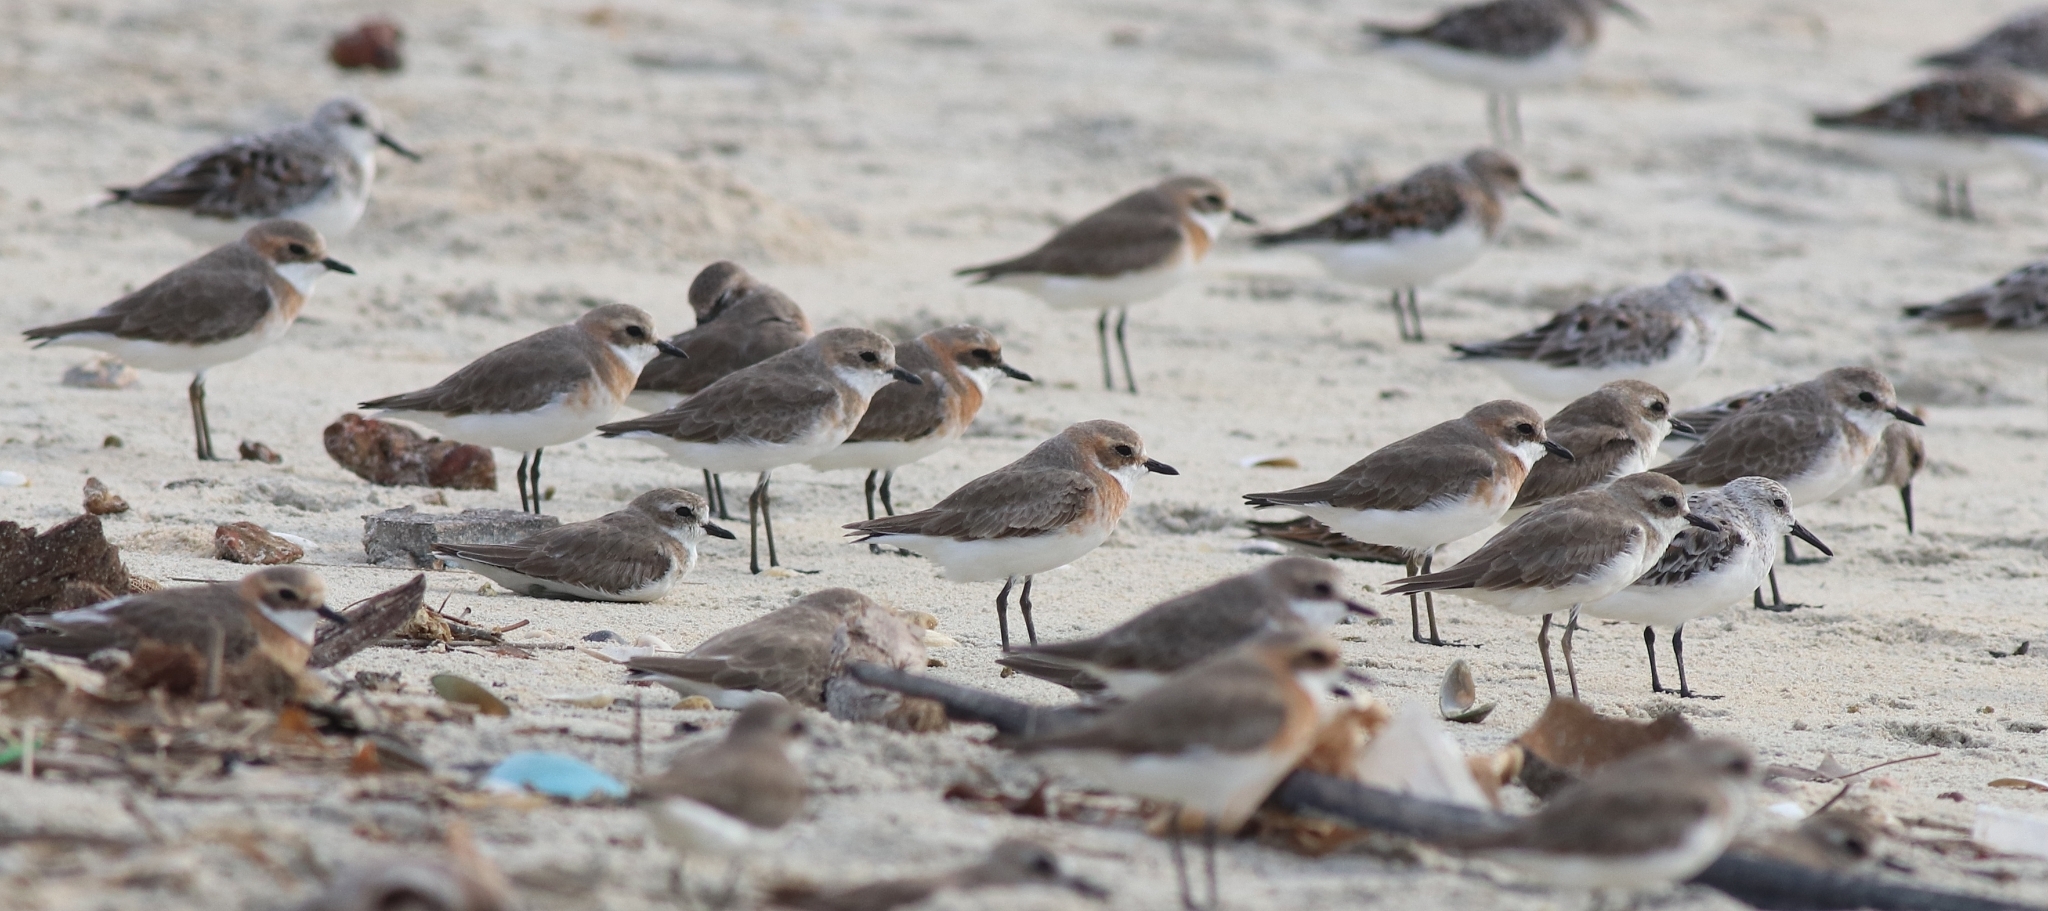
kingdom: Animalia
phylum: Chordata
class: Aves
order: Charadriiformes
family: Charadriidae
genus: Anarhynchus
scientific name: Anarhynchus
